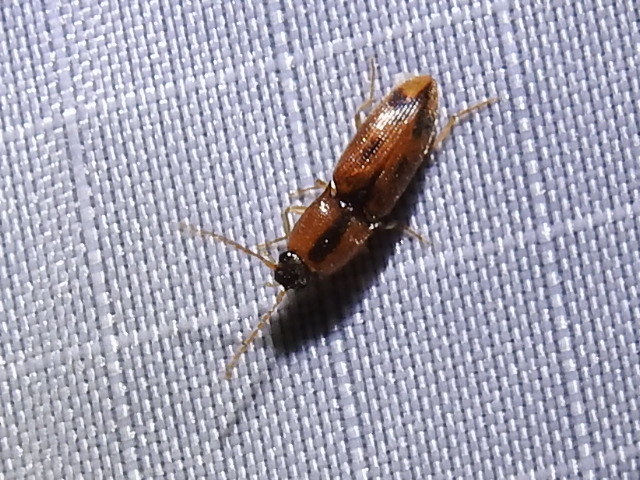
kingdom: Animalia
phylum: Arthropoda
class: Insecta
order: Coleoptera
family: Elateridae
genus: Aeolus
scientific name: Aeolus mellillus
